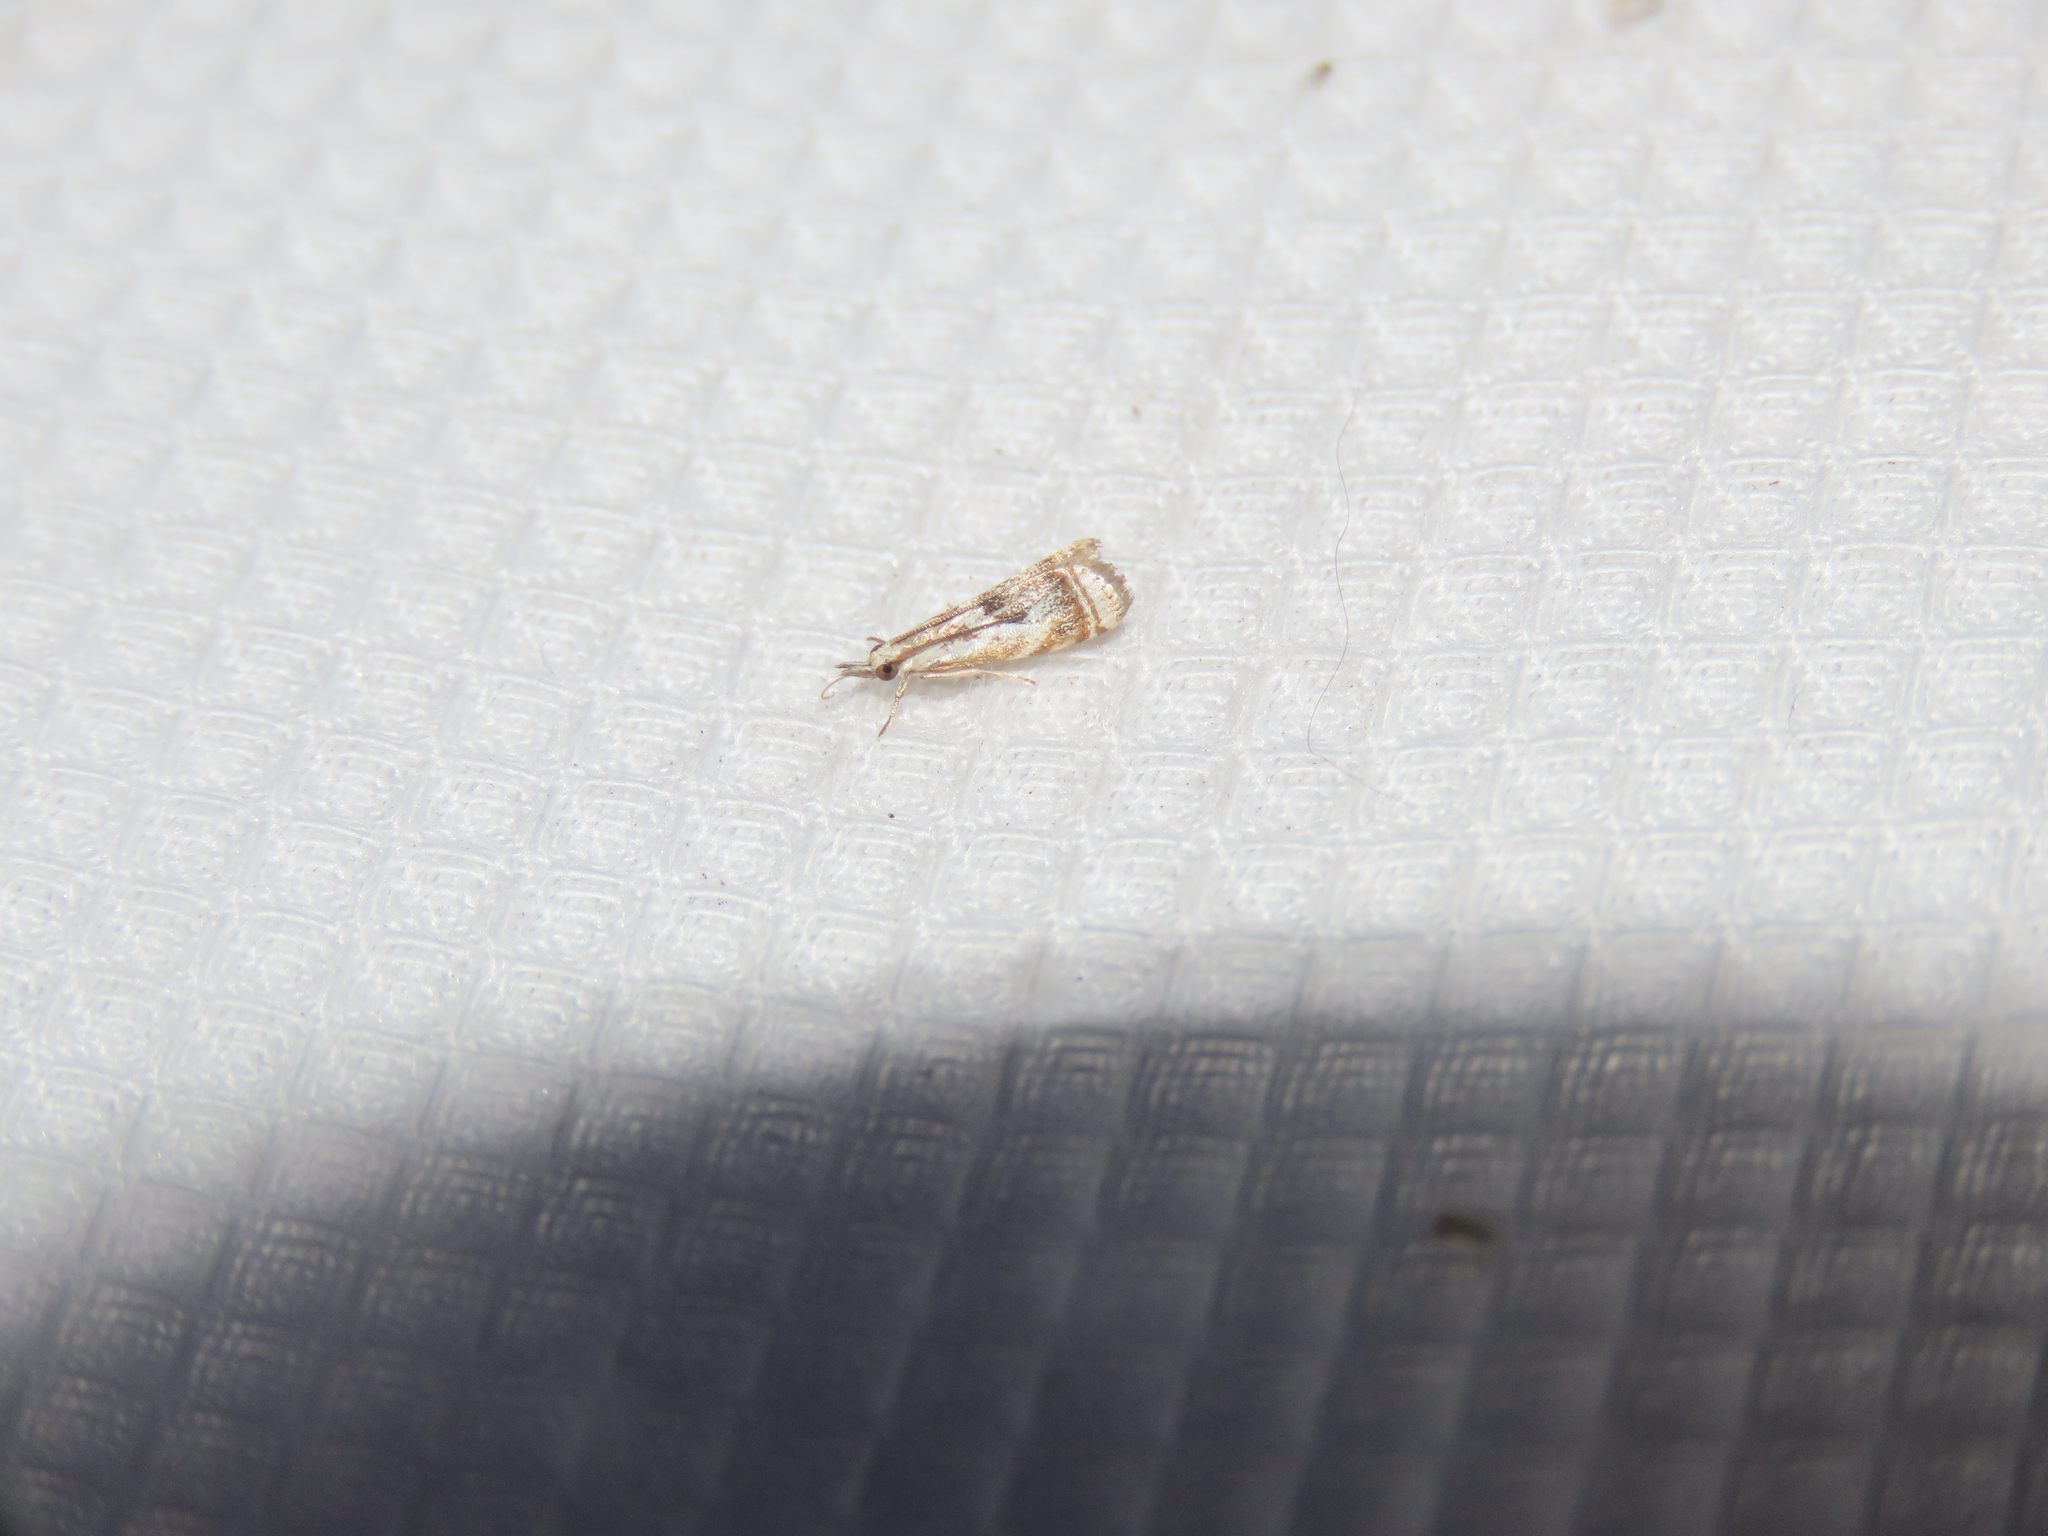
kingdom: Animalia
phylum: Arthropoda
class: Insecta
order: Lepidoptera
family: Crambidae
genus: Microcrambus
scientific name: Microcrambus elegans
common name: Elegant grass-veneer
